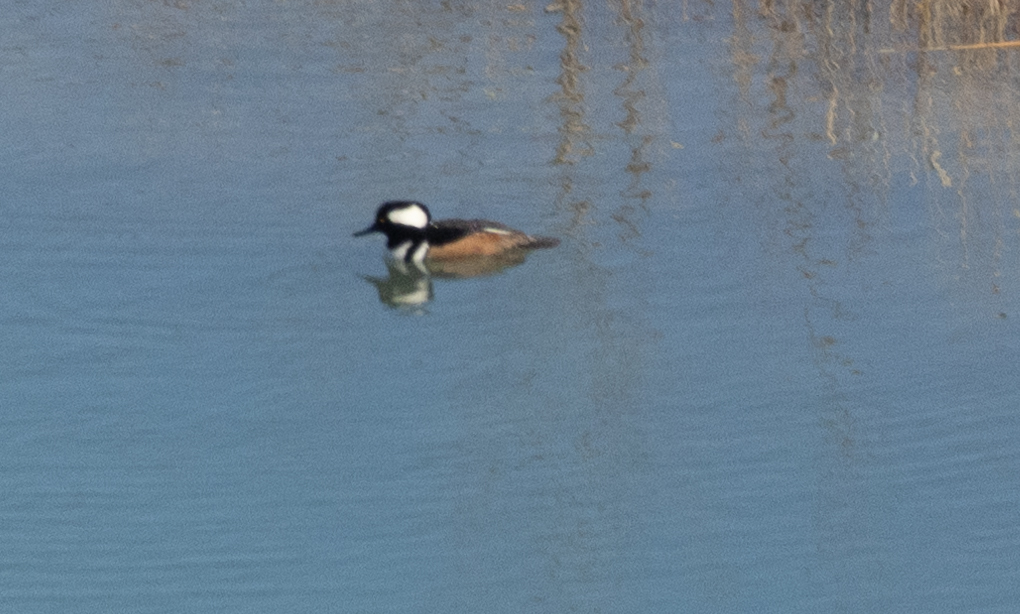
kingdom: Animalia
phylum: Chordata
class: Aves
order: Anseriformes
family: Anatidae
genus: Lophodytes
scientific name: Lophodytes cucullatus
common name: Hooded merganser
